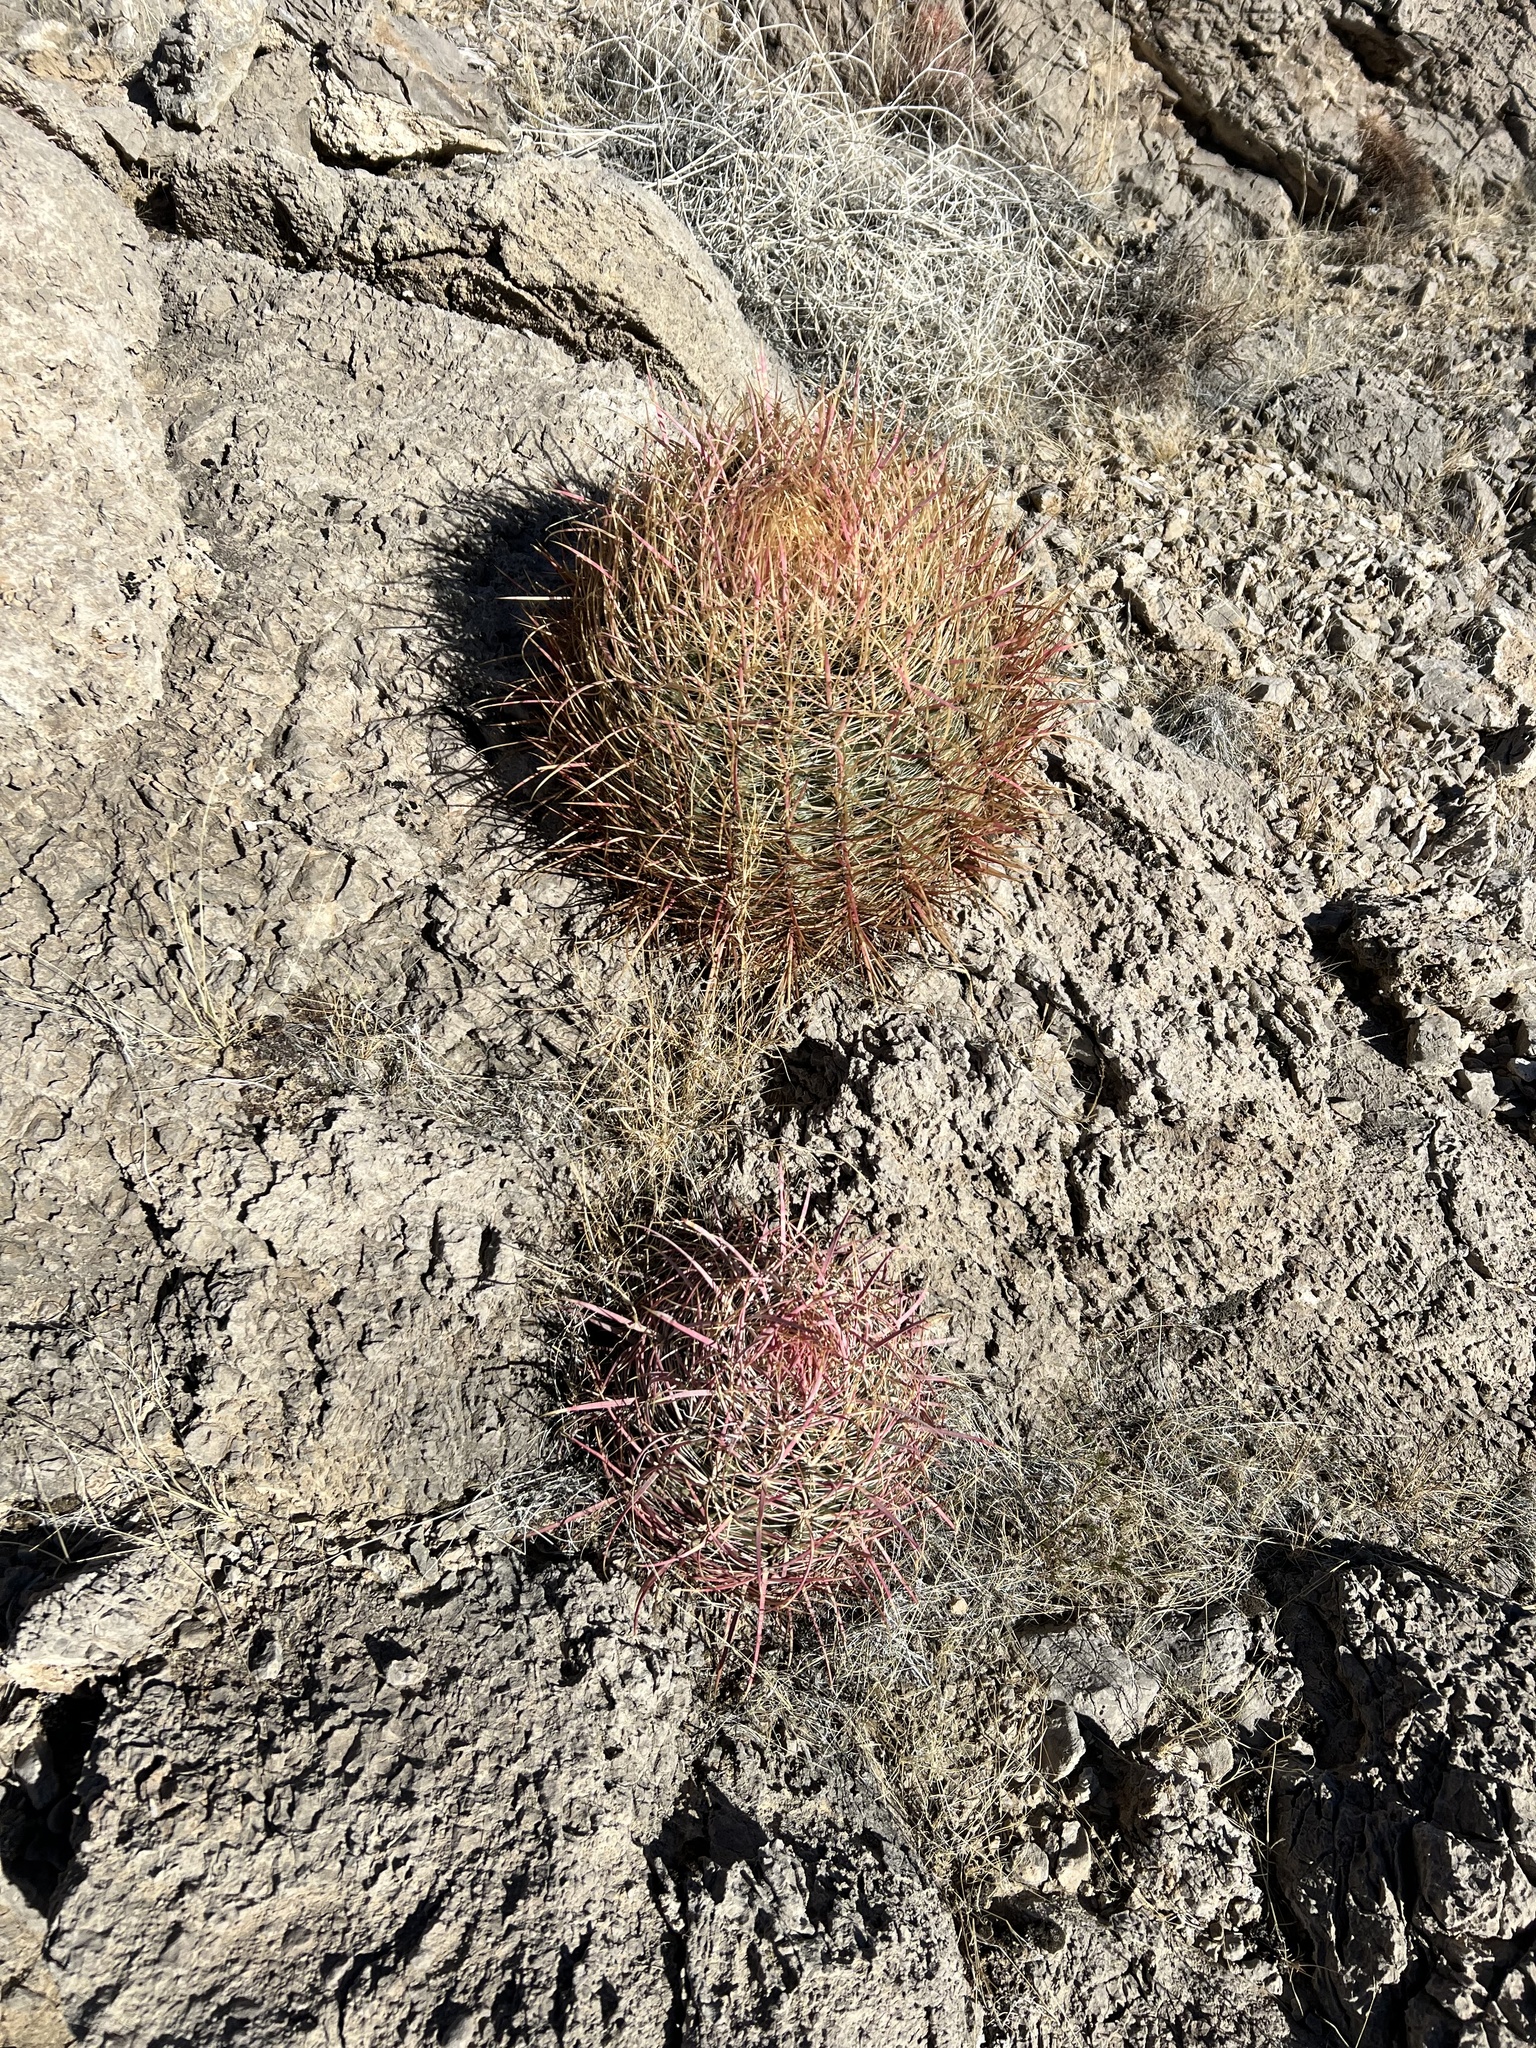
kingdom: Plantae
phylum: Tracheophyta
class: Magnoliopsida
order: Caryophyllales
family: Cactaceae
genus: Ferocactus
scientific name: Ferocactus cylindraceus
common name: California barrel cactus
